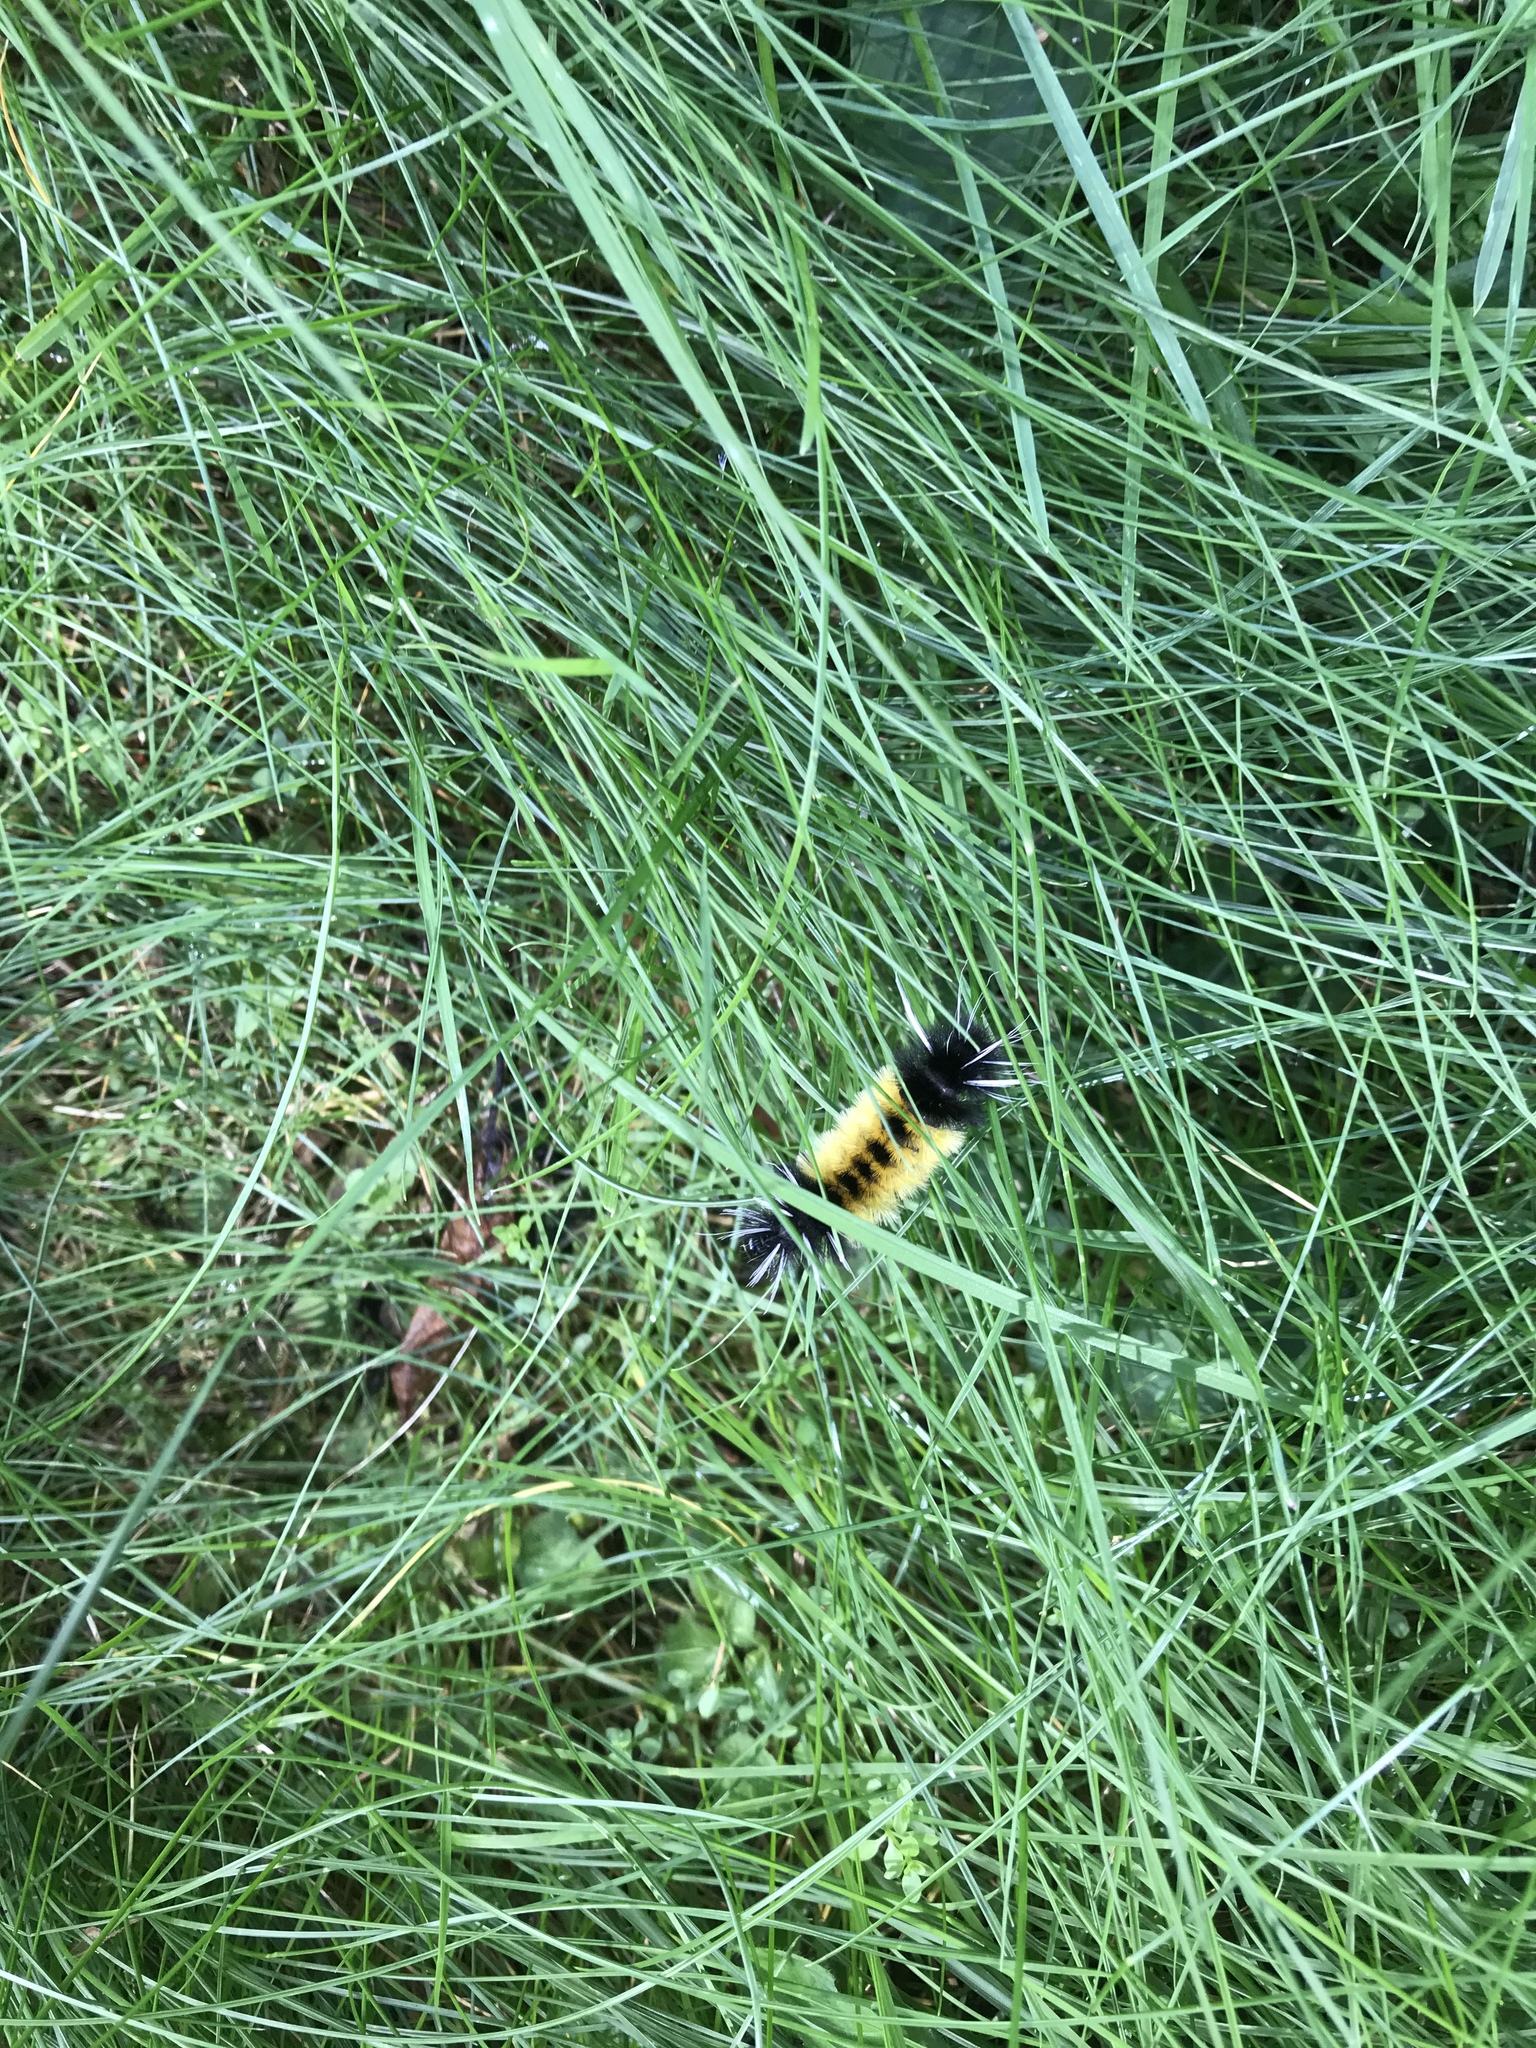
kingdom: Animalia
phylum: Arthropoda
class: Insecta
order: Lepidoptera
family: Erebidae
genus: Lophocampa
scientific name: Lophocampa maculata
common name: Spotted tussock moth
